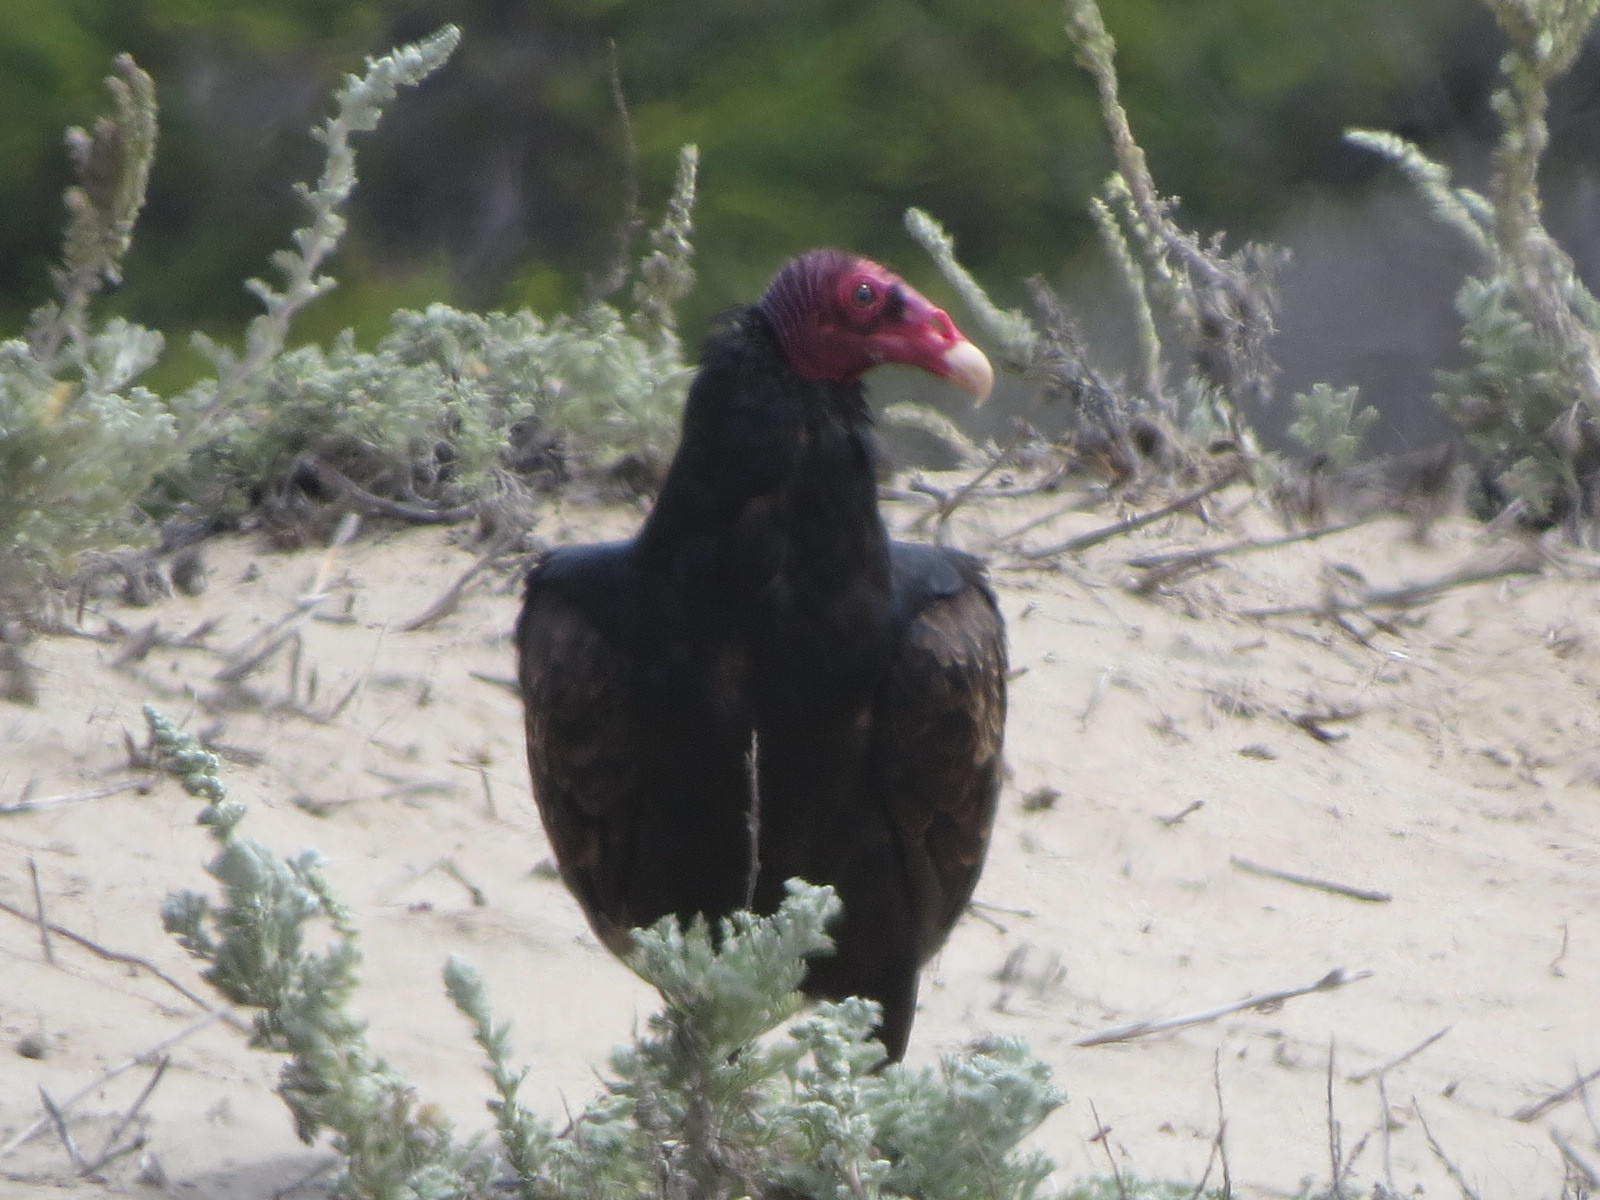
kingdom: Animalia
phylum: Chordata
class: Aves
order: Accipitriformes
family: Cathartidae
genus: Cathartes
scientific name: Cathartes aura
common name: Turkey vulture
